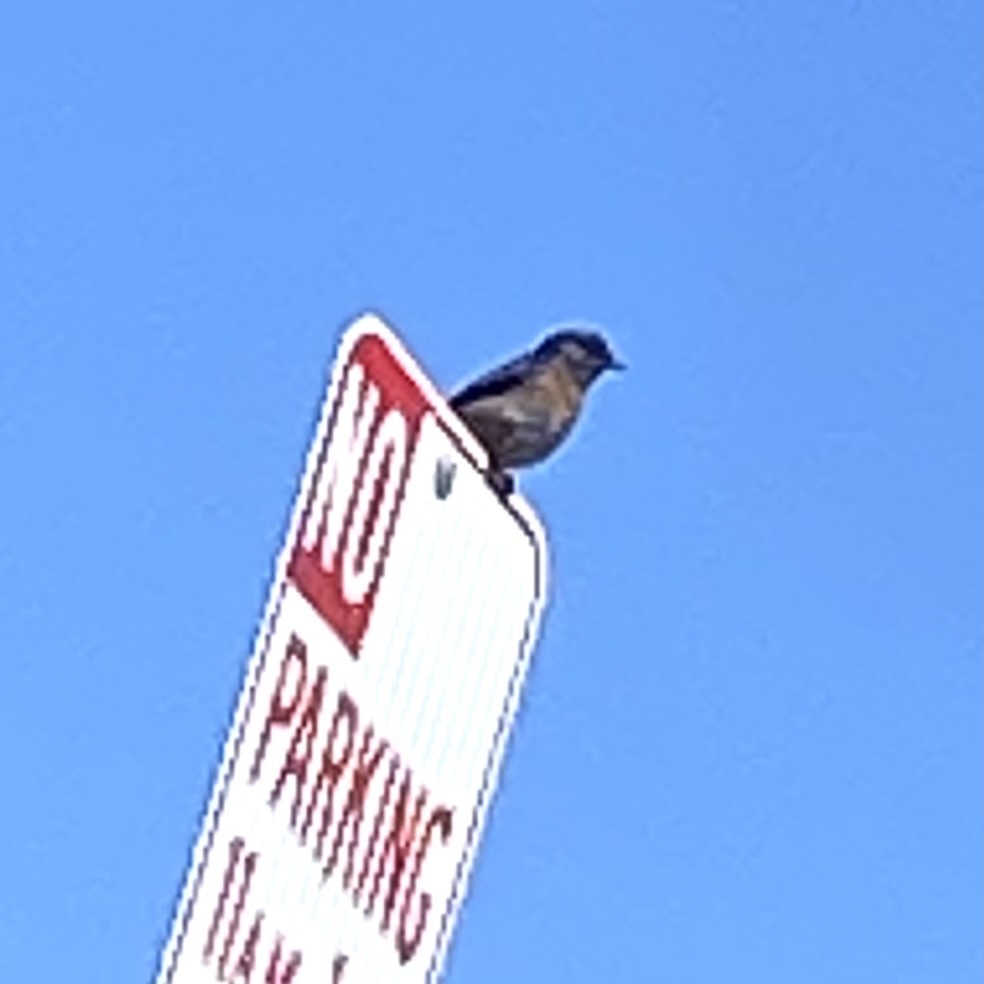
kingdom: Animalia
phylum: Chordata
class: Aves
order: Passeriformes
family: Turdidae
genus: Sialia
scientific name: Sialia mexicana
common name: Western bluebird
